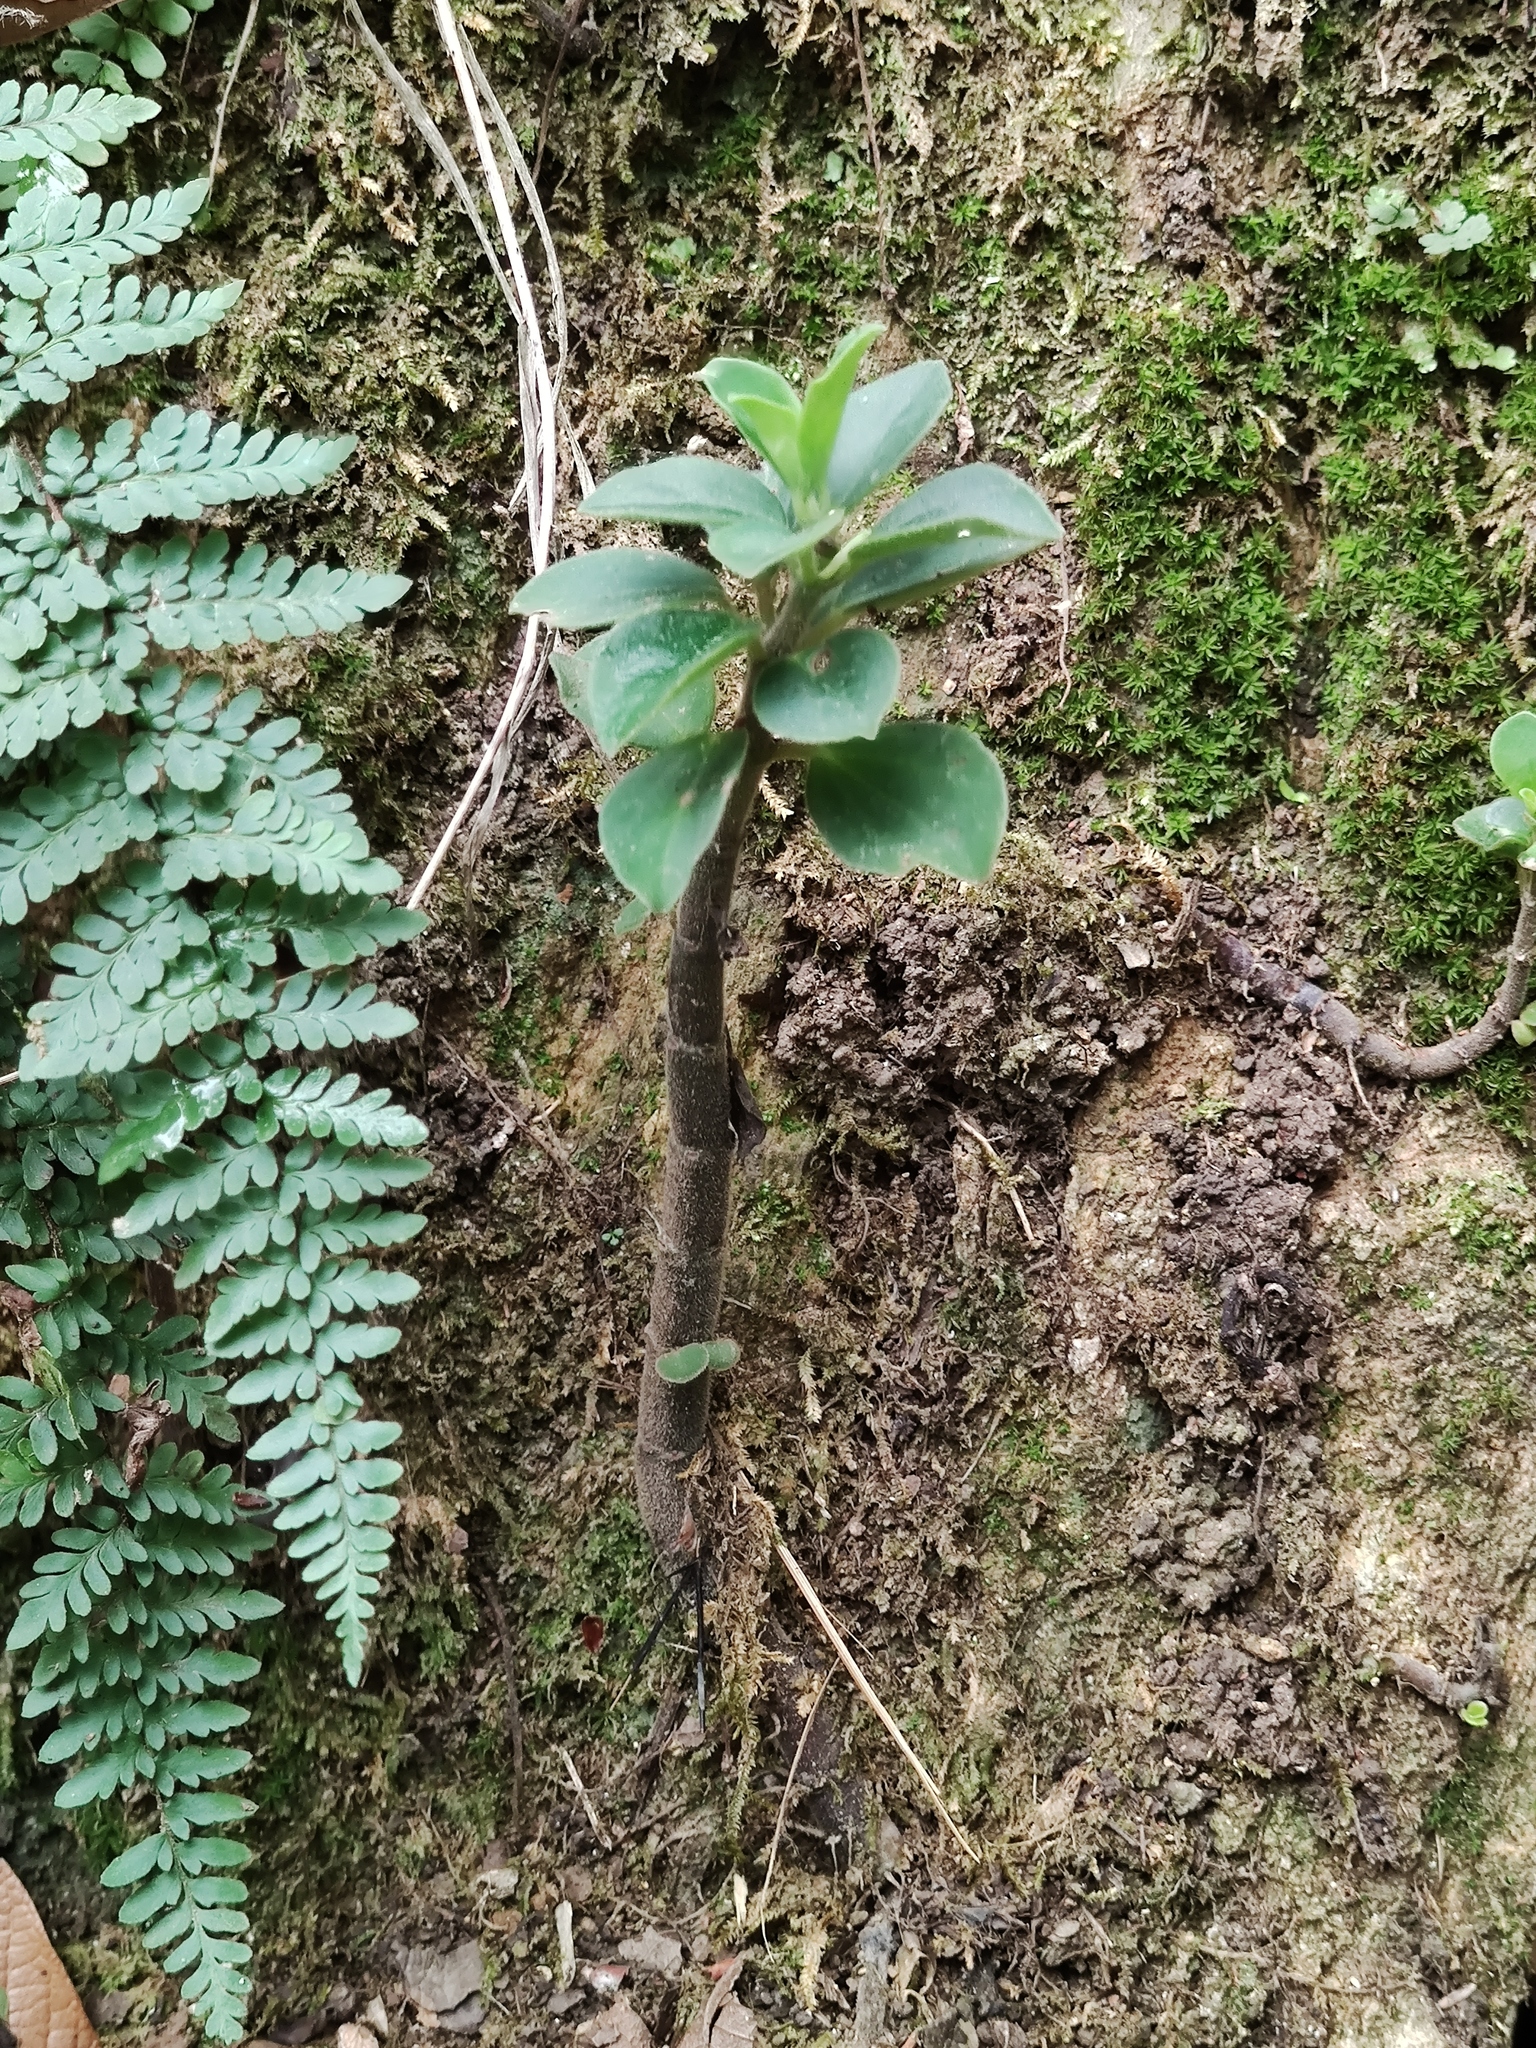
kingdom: Plantae
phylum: Tracheophyta
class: Magnoliopsida
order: Piperales
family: Piperaceae
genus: Peperomia
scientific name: Peperomia liebmannii
